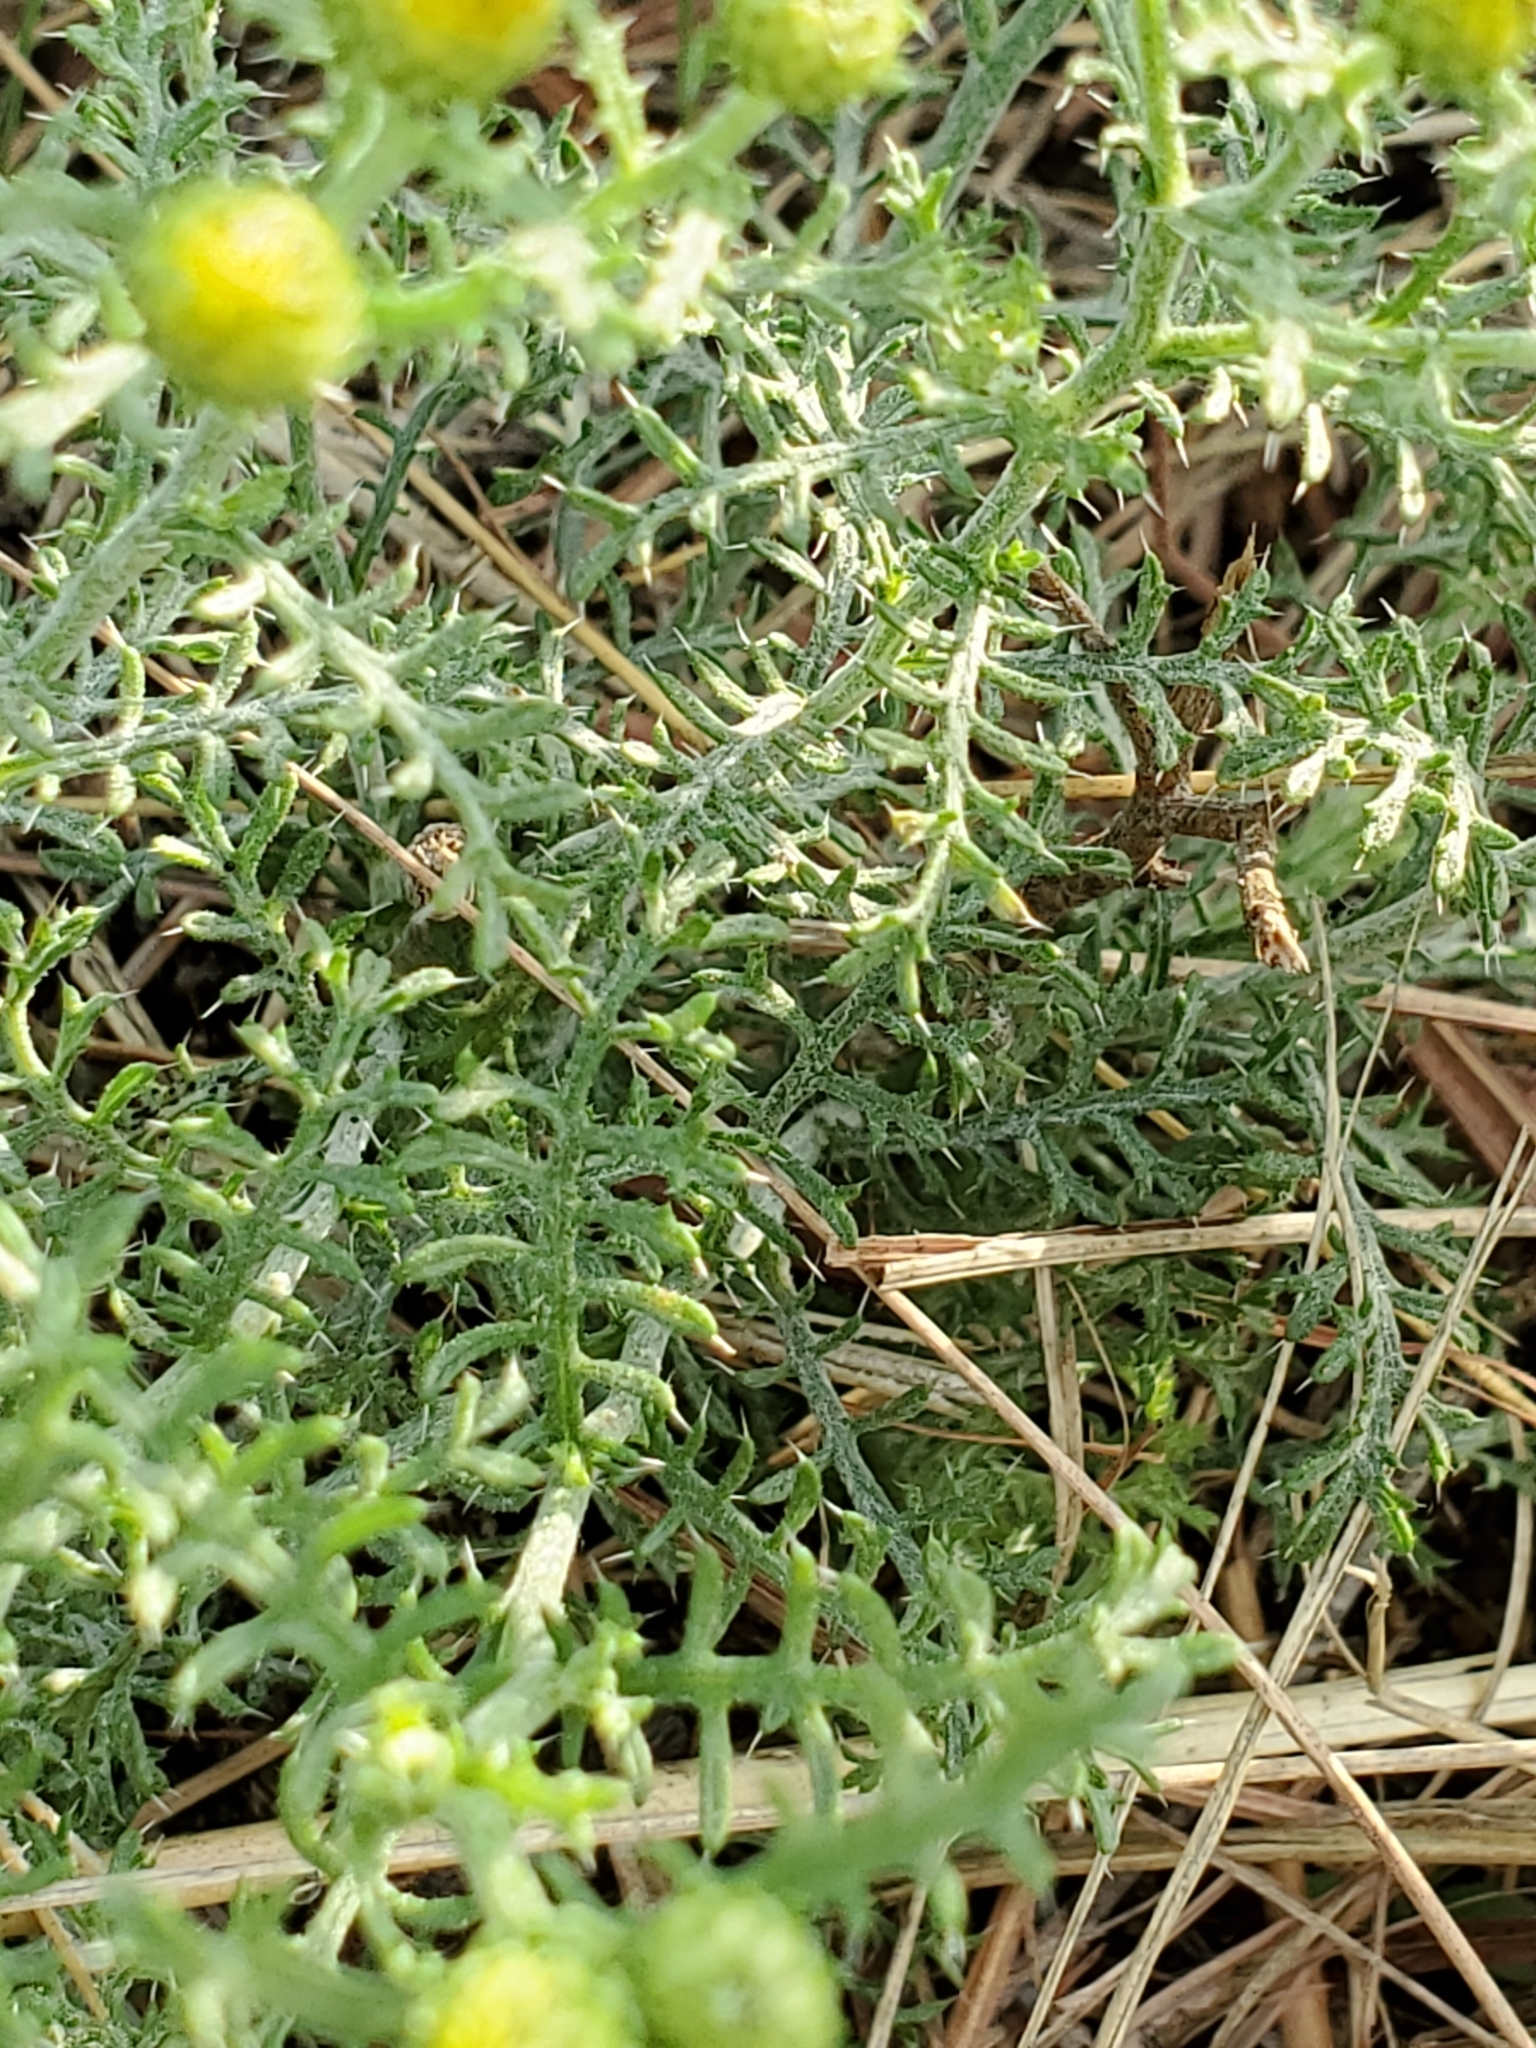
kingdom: Plantae
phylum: Tracheophyta
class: Magnoliopsida
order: Asterales
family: Asteraceae
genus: Xanthisma
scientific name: Xanthisma spinulosum
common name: Spiny goldenweed
